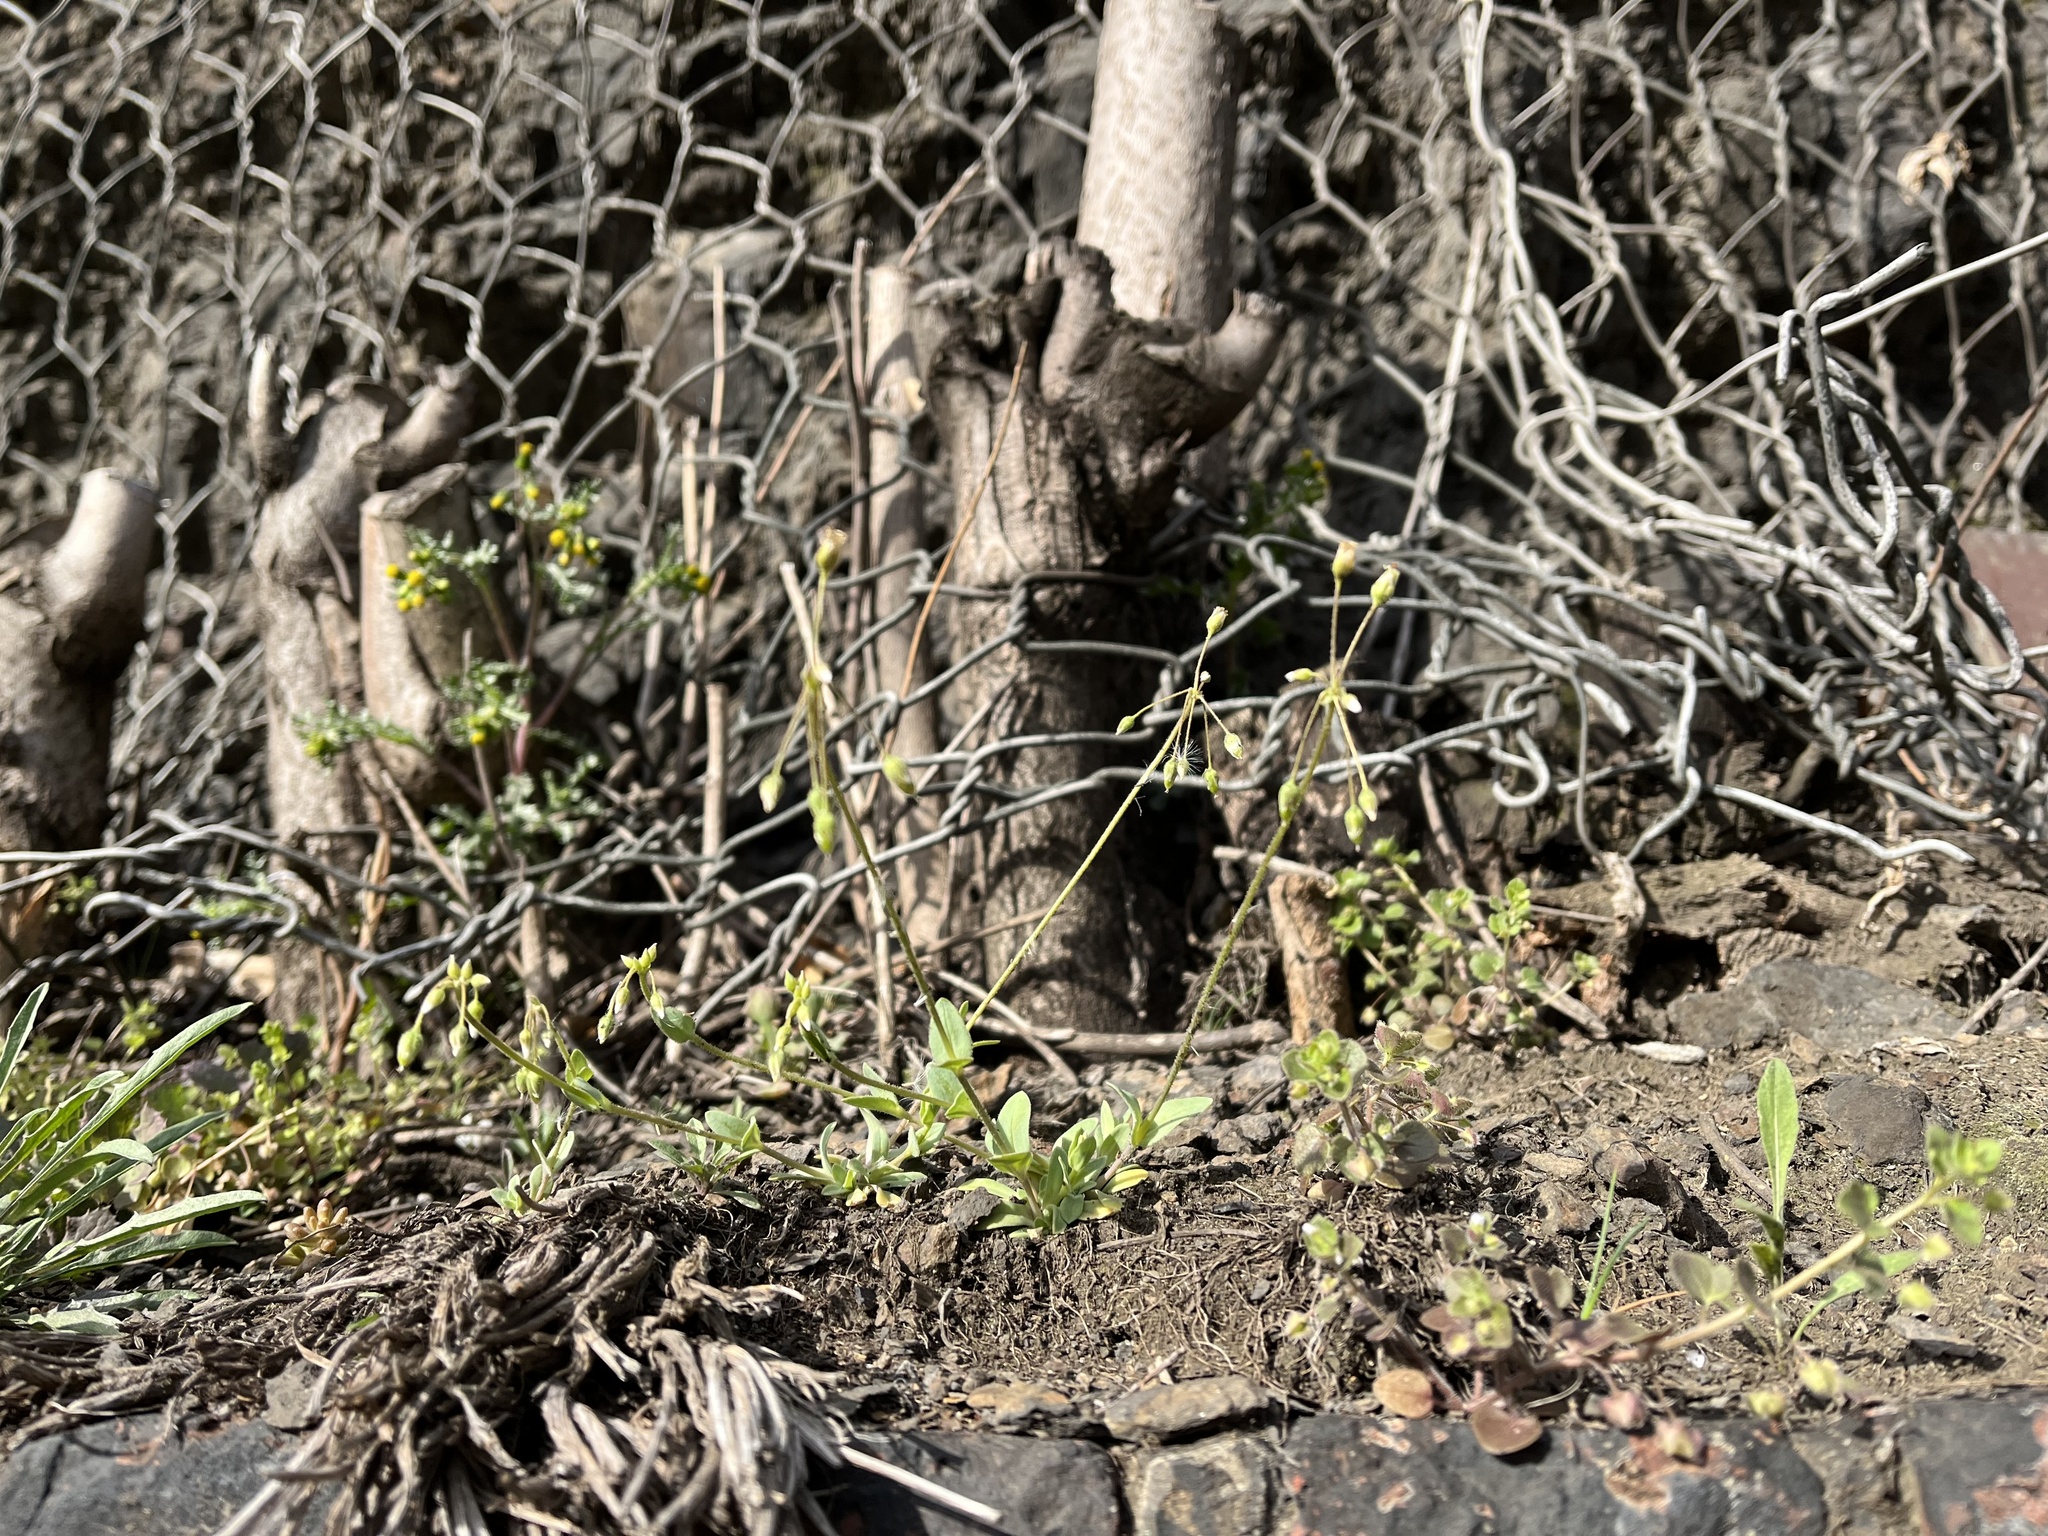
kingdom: Plantae
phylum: Tracheophyta
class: Magnoliopsida
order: Caryophyllales
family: Caryophyllaceae
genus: Holosteum
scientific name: Holosteum umbellatum
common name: Jagged chickweed
